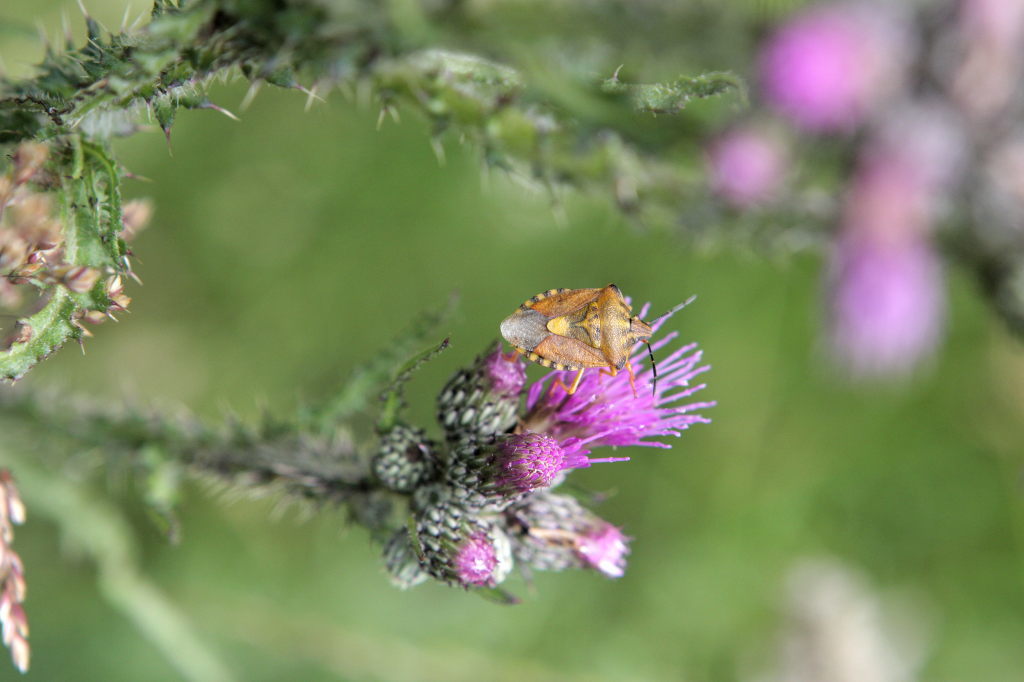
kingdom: Animalia
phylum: Arthropoda
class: Insecta
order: Hemiptera
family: Pentatomidae
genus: Carpocoris
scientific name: Carpocoris purpureipennis
